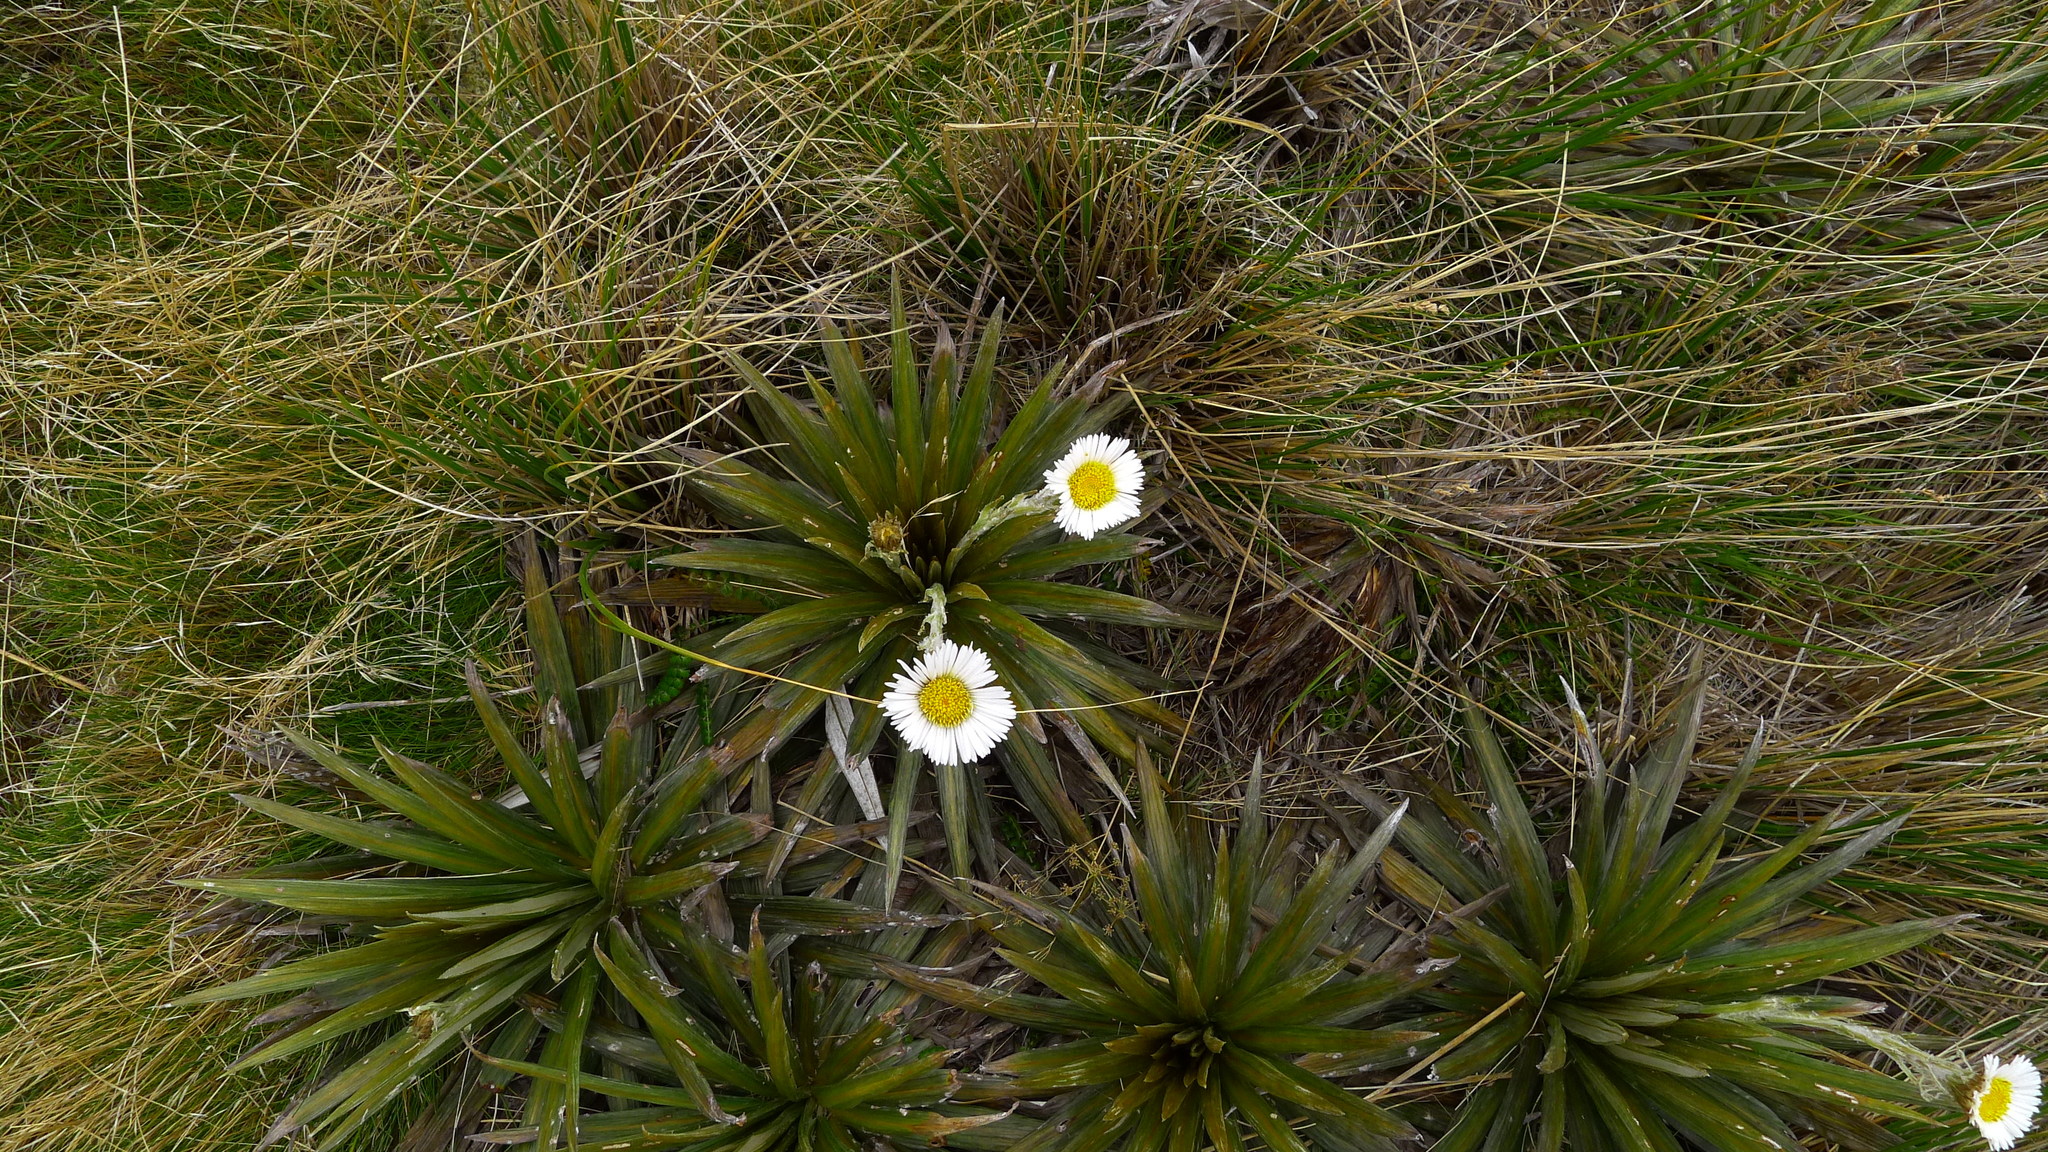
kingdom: Plantae
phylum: Tracheophyta
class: Magnoliopsida
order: Asterales
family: Asteraceae
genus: Celmisia
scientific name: Celmisia armstrongii
